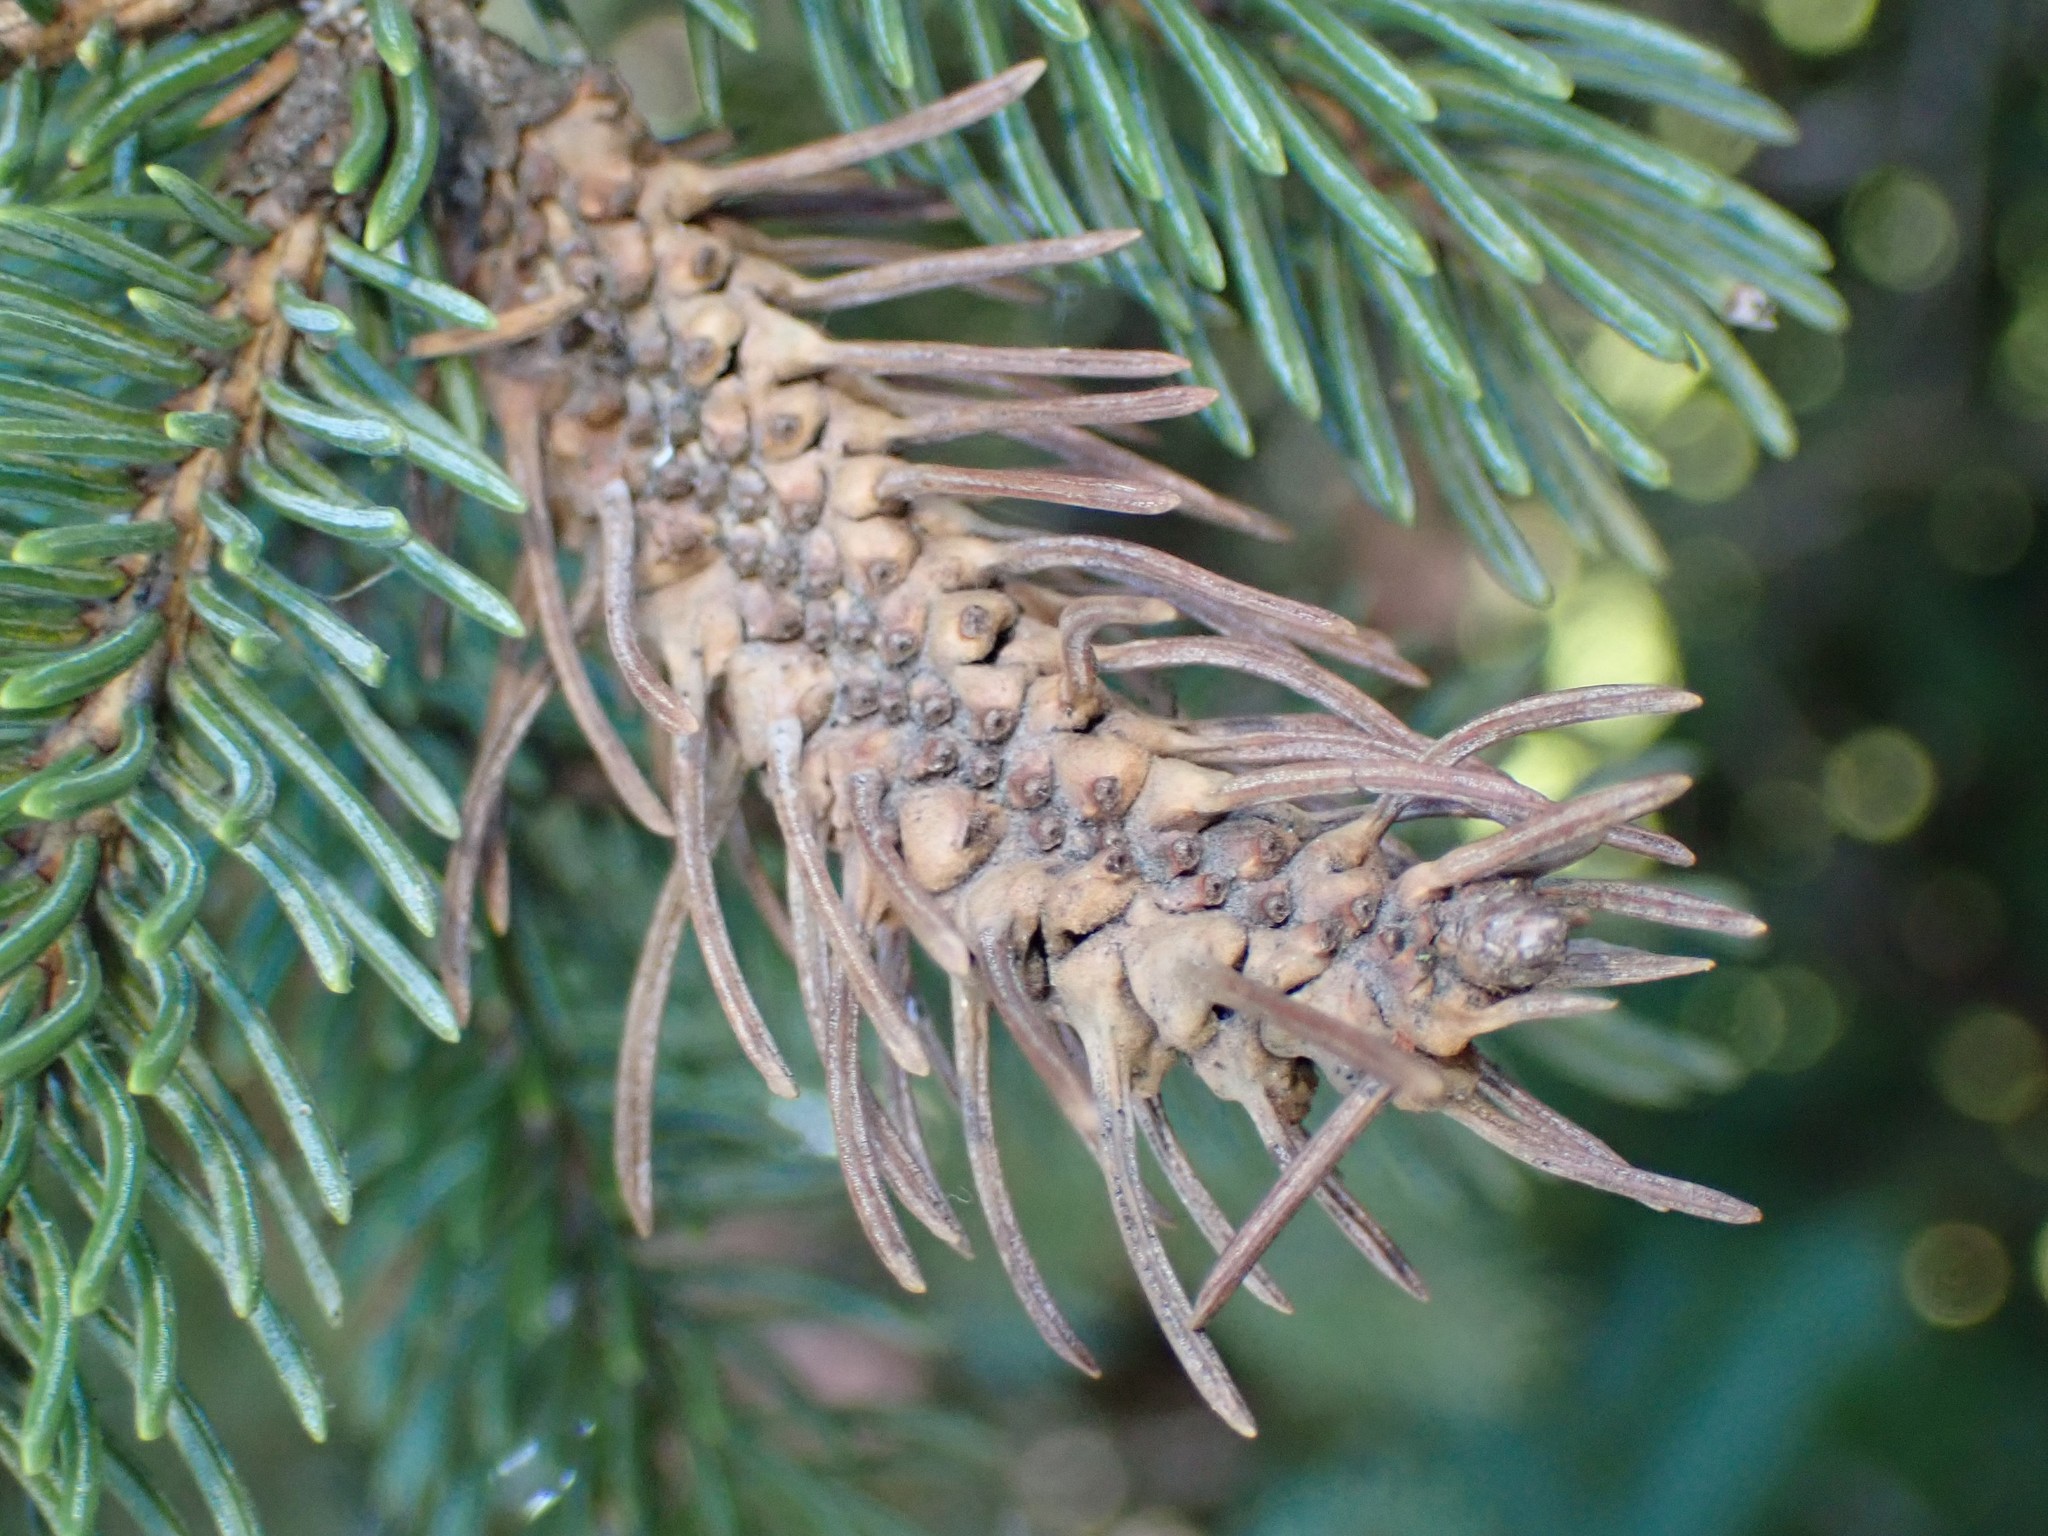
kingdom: Animalia
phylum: Arthropoda
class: Insecta
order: Hemiptera
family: Adelgidae
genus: Adelges
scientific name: Adelges cooleyi
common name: Cooley spruce gall adelgid
